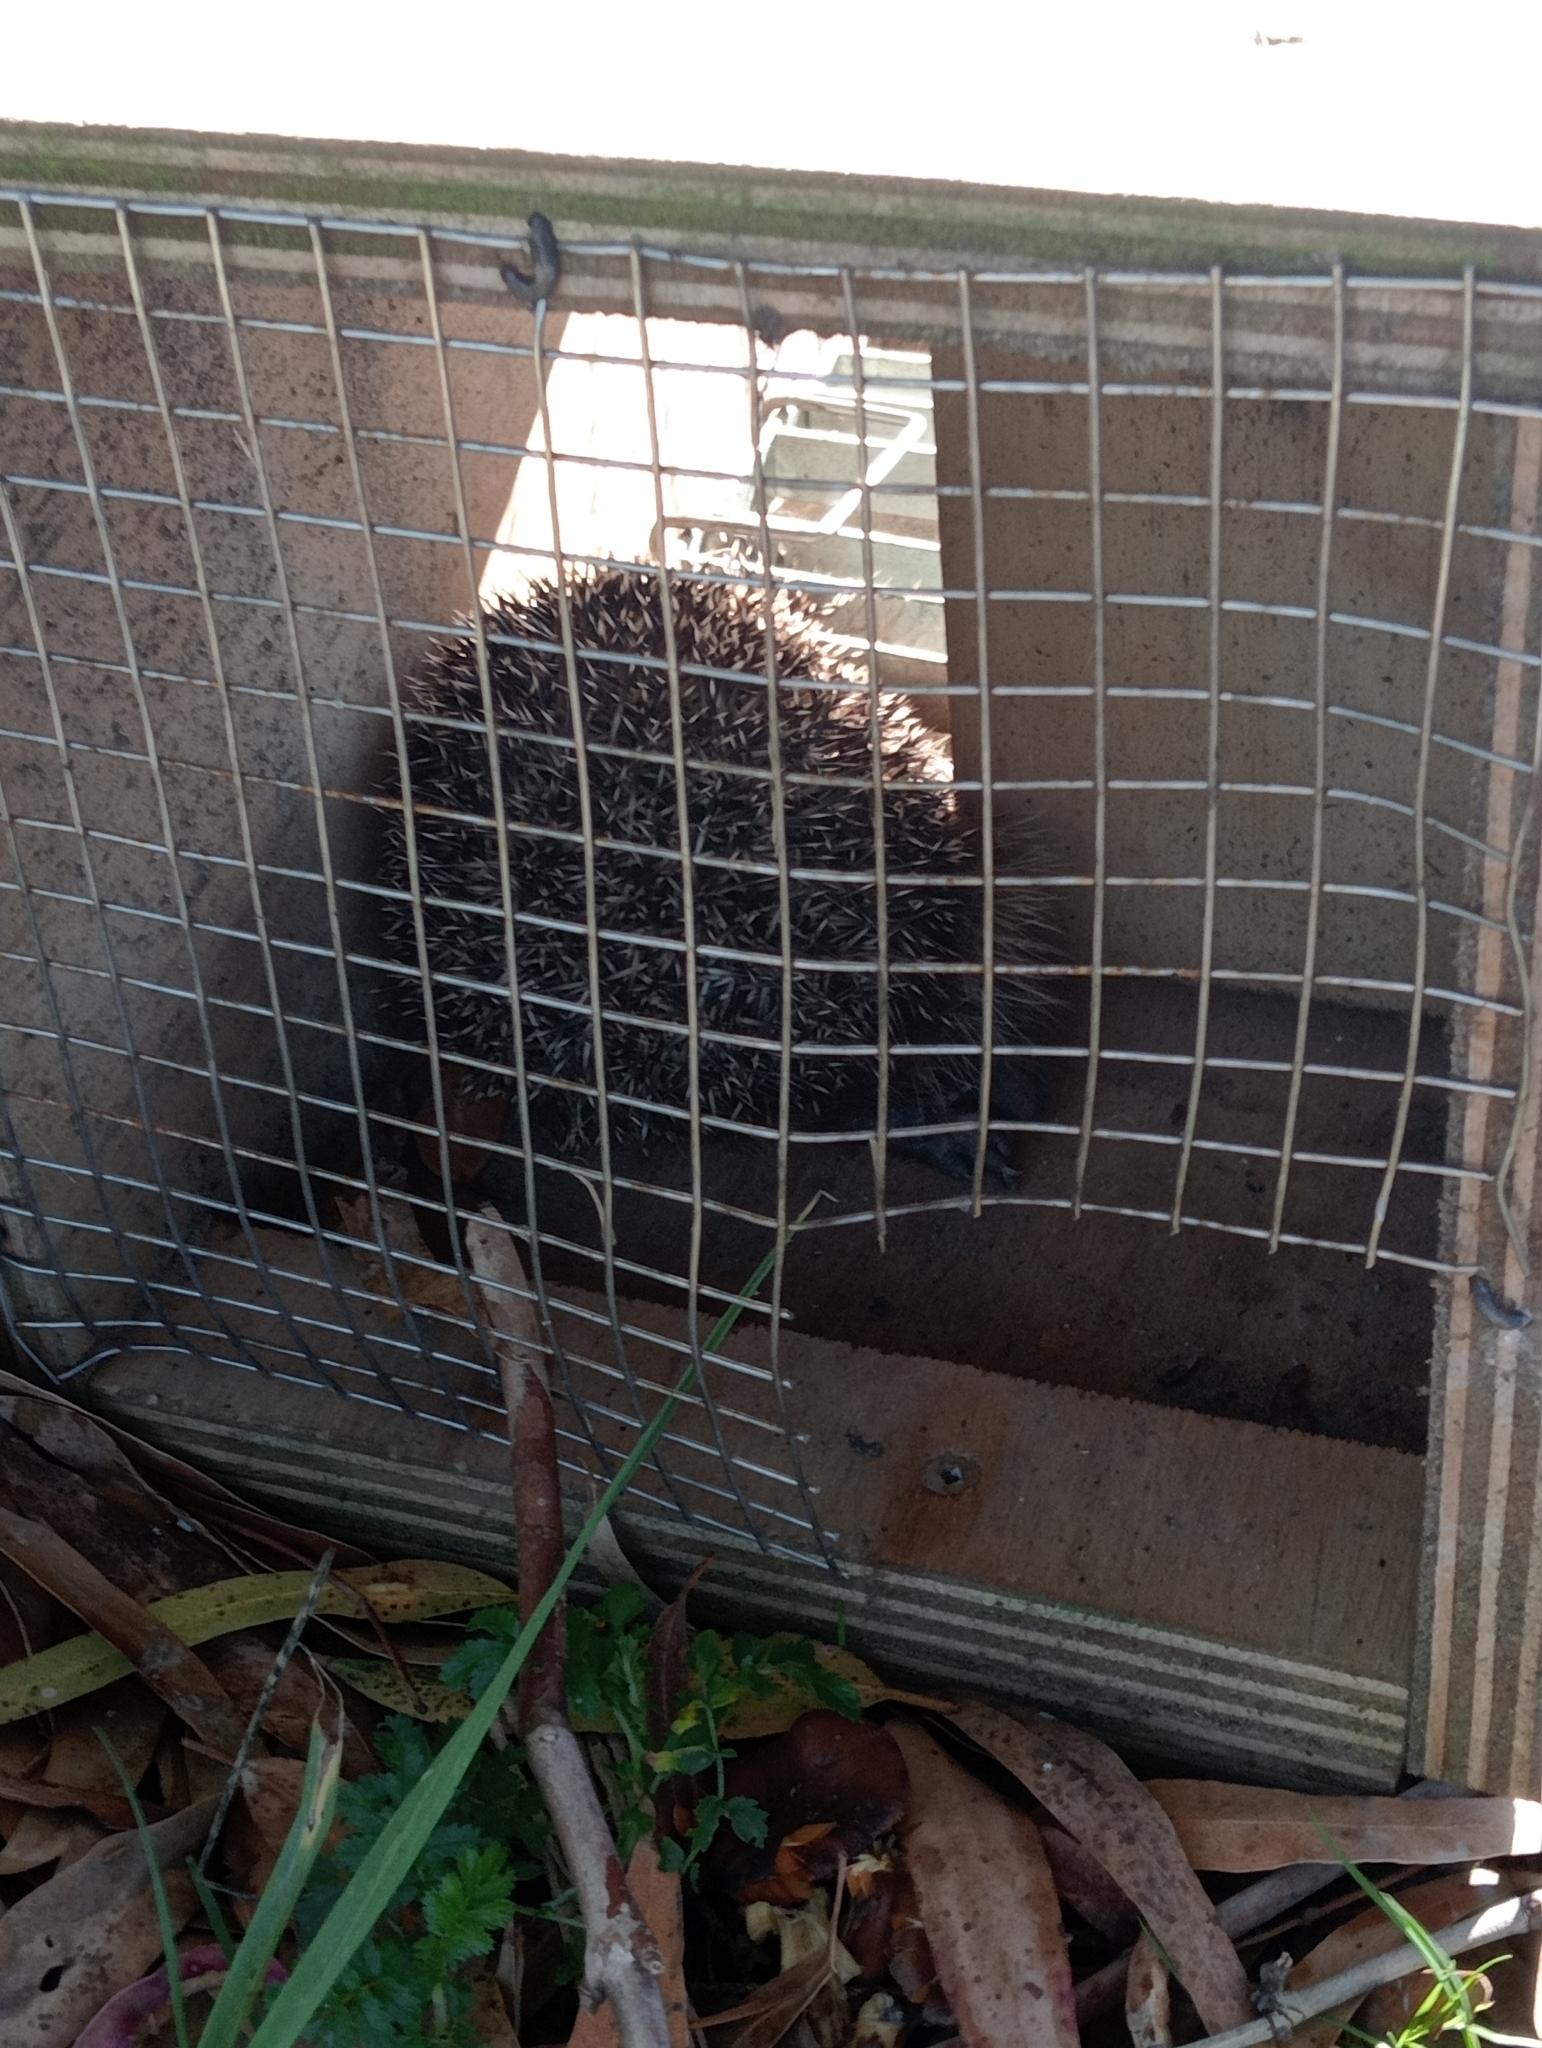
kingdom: Animalia
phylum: Chordata
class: Mammalia
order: Erinaceomorpha
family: Erinaceidae
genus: Erinaceus
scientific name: Erinaceus europaeus
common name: West european hedgehog
